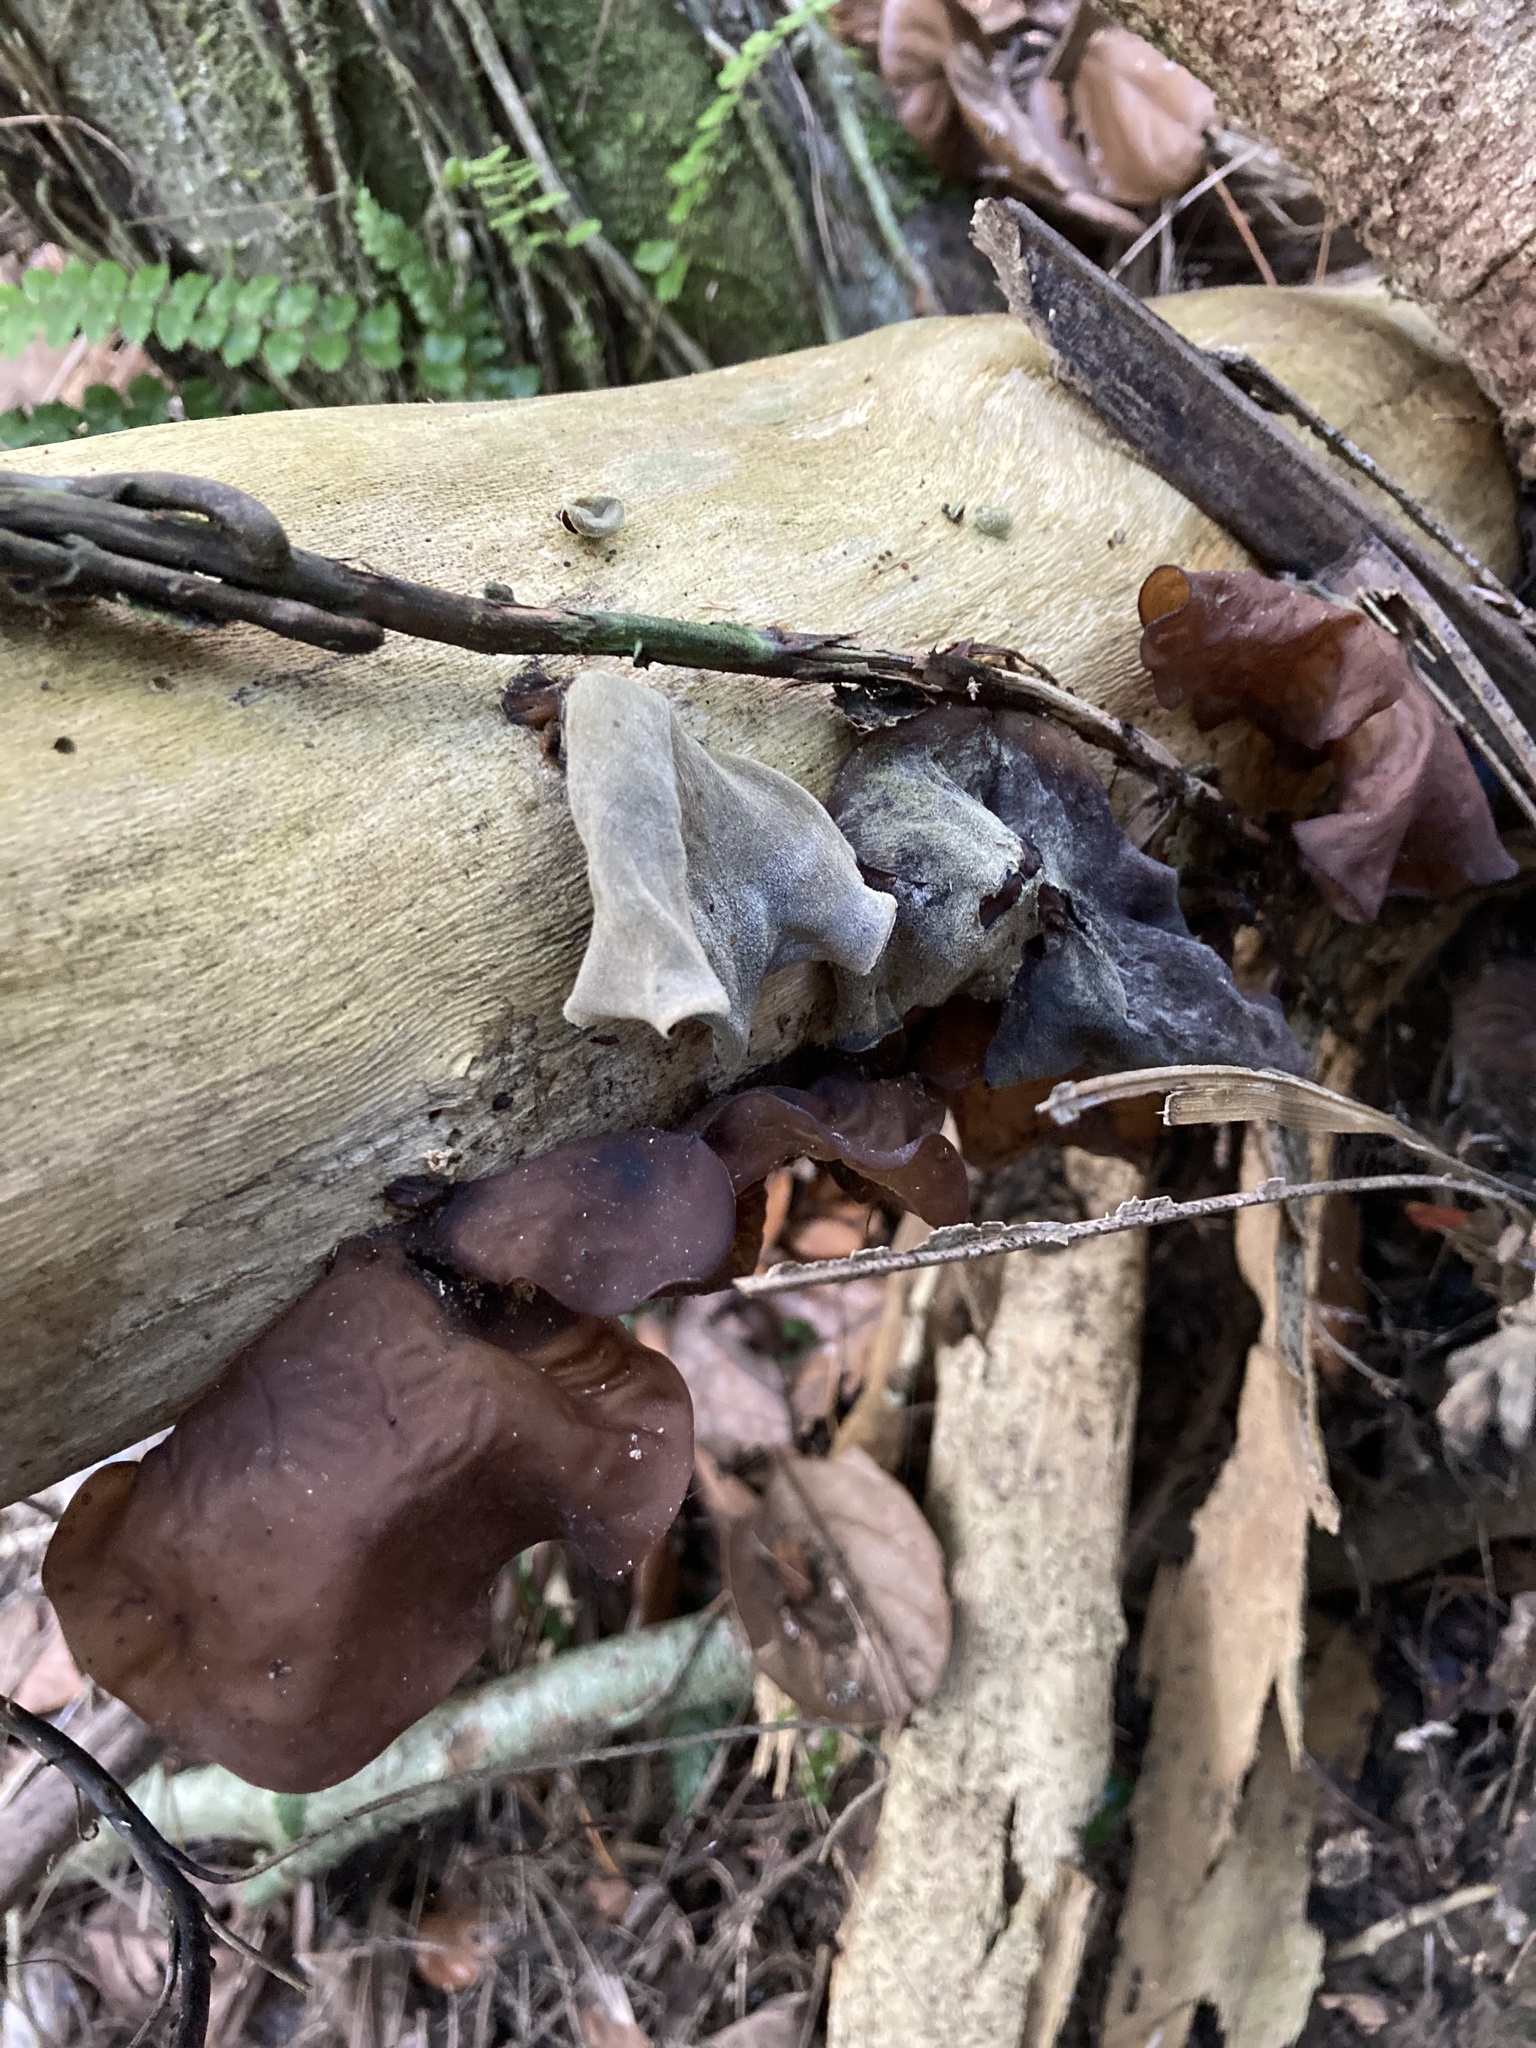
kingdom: Fungi
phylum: Basidiomycota
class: Agaricomycetes
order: Auriculariales
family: Auriculariaceae
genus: Auricularia
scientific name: Auricularia cornea
